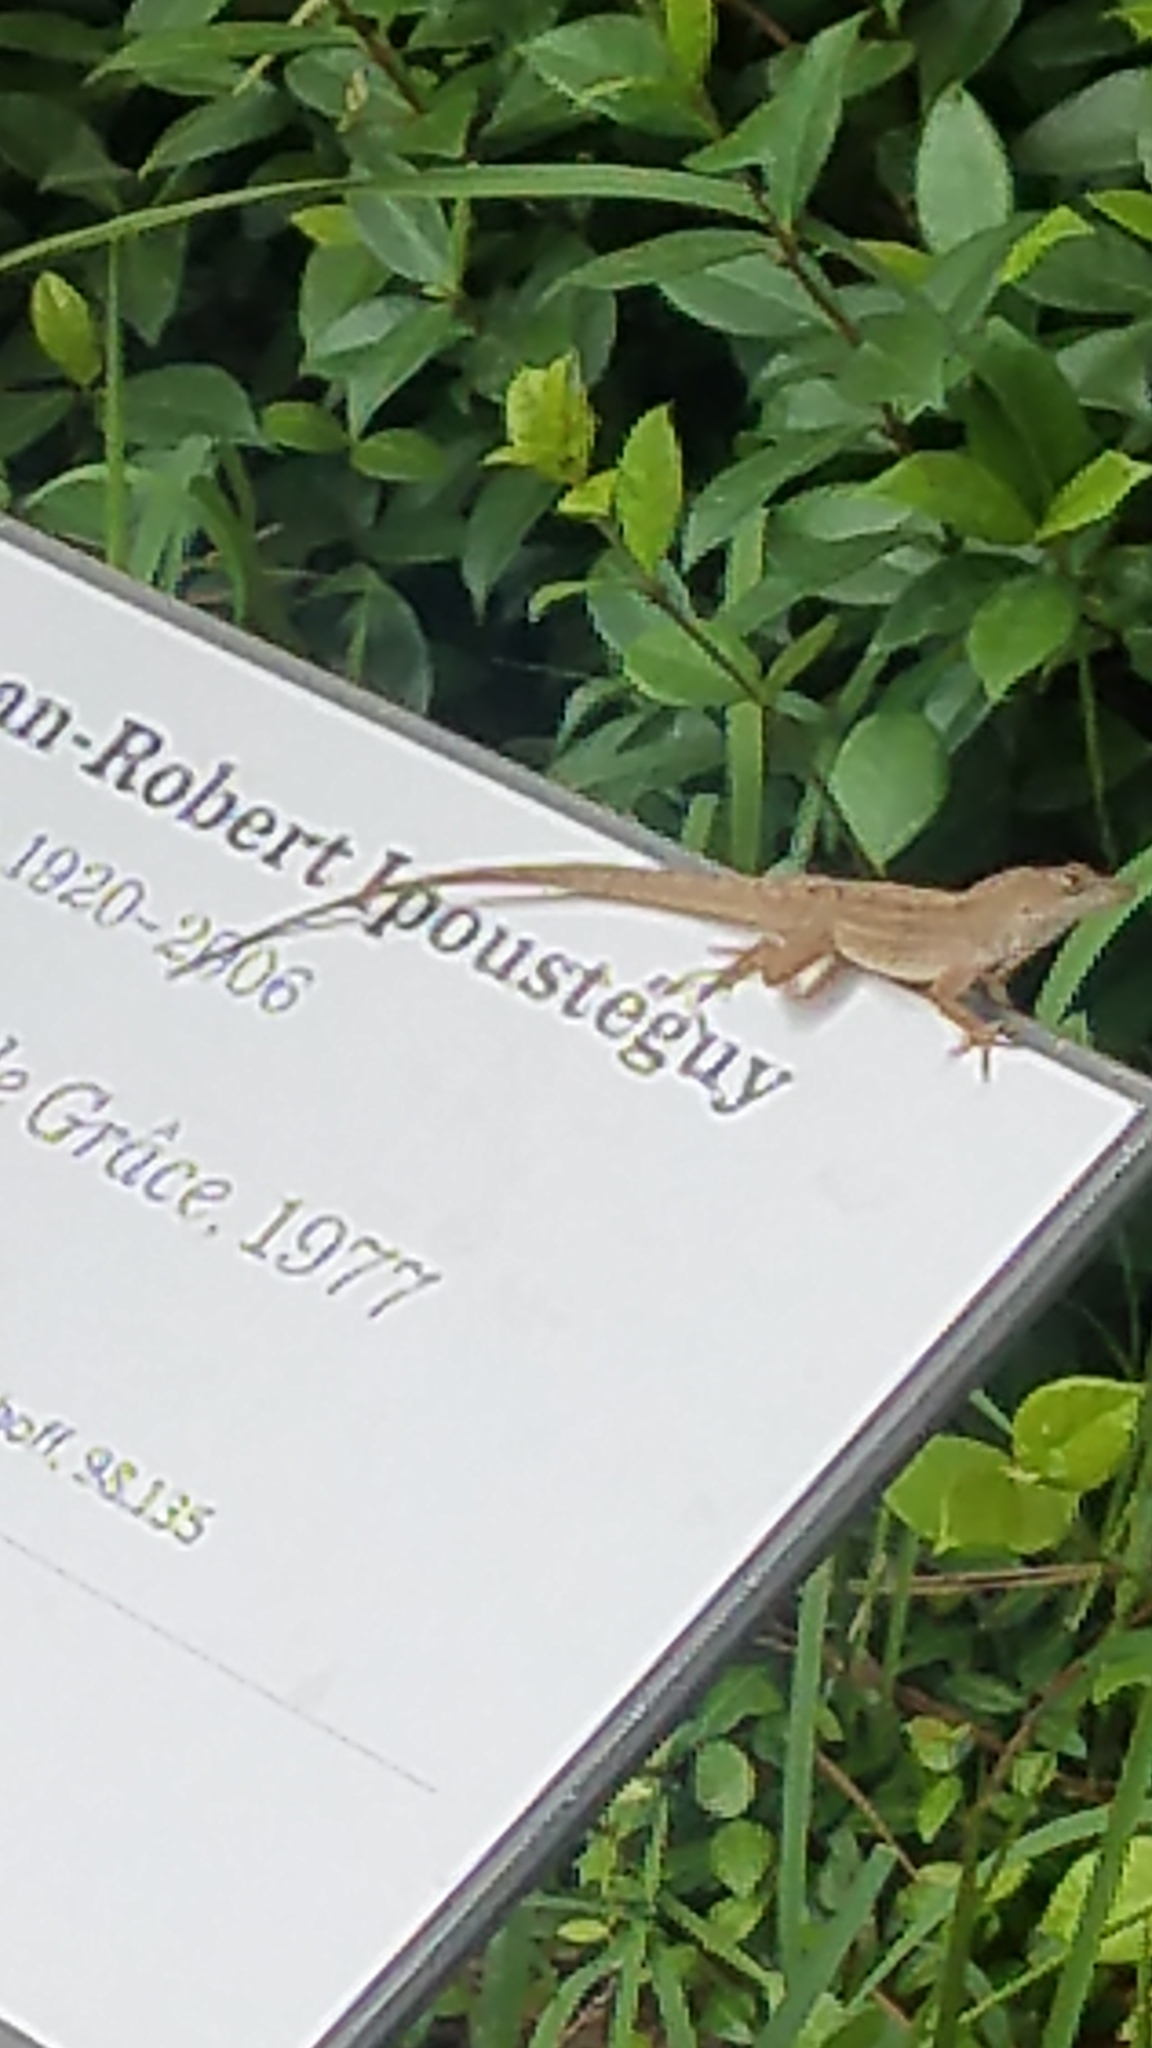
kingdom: Animalia
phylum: Chordata
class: Squamata
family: Dactyloidae
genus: Anolis
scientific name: Anolis sagrei
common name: Brown anole
